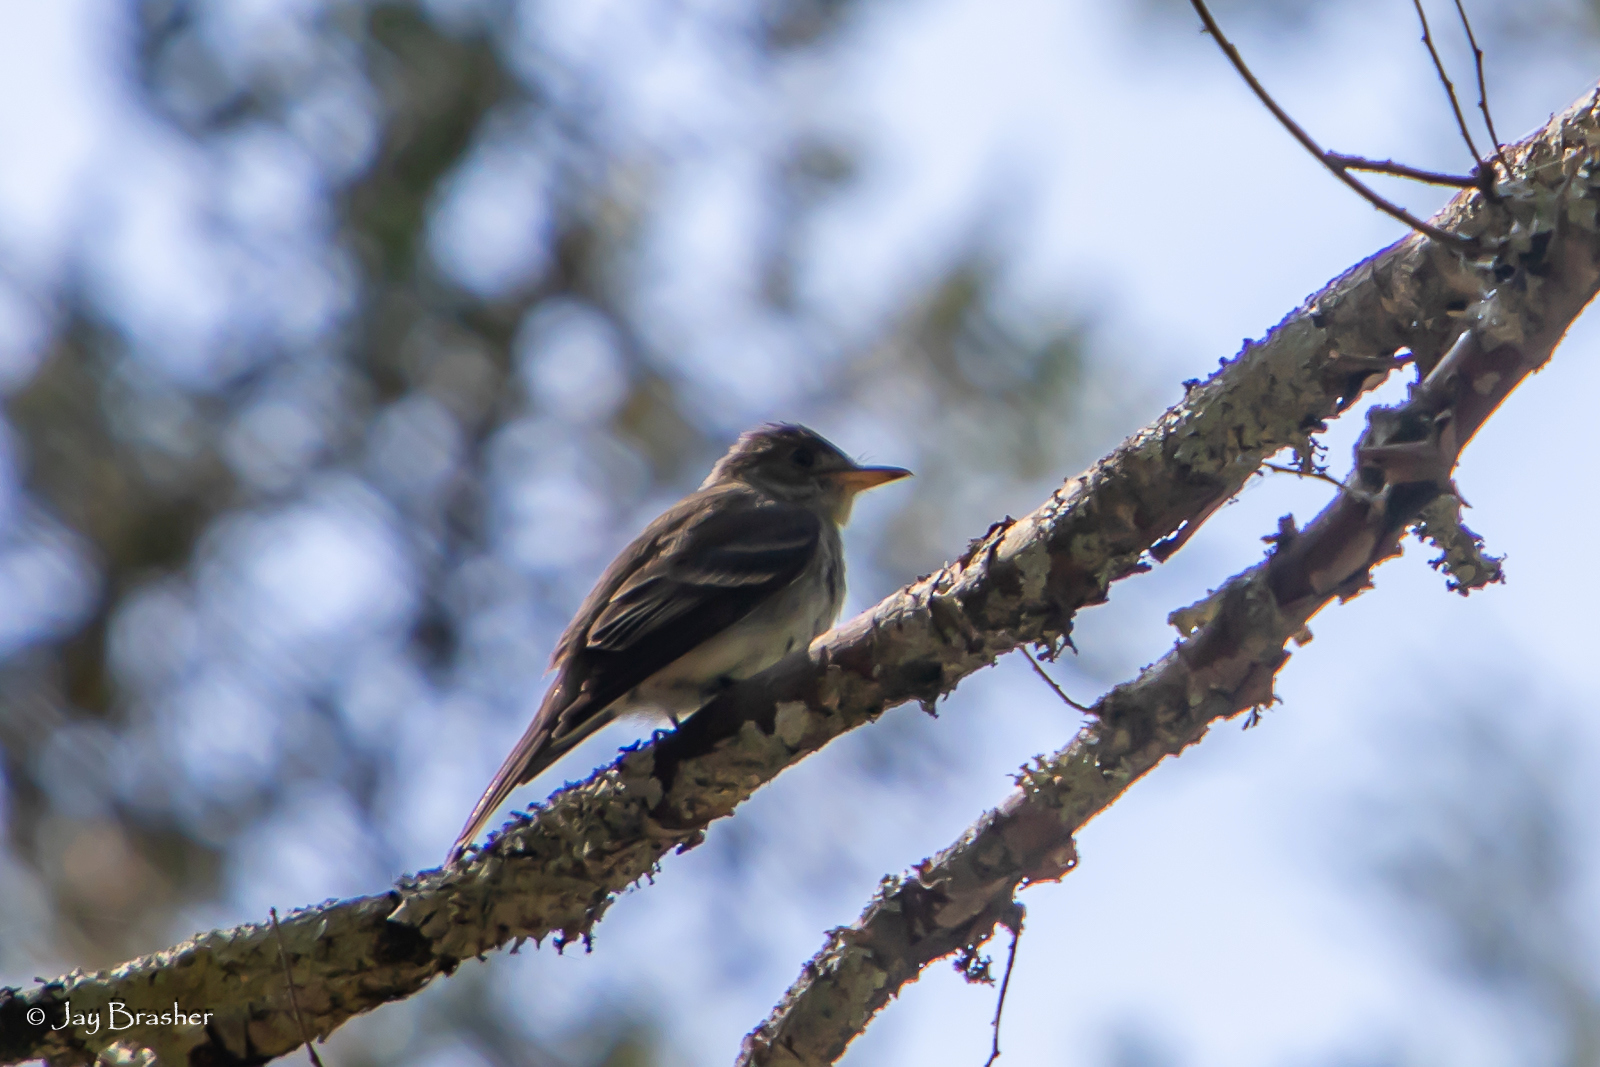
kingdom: Animalia
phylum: Chordata
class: Aves
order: Passeriformes
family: Tyrannidae
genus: Contopus
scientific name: Contopus virens
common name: Eastern wood-pewee
